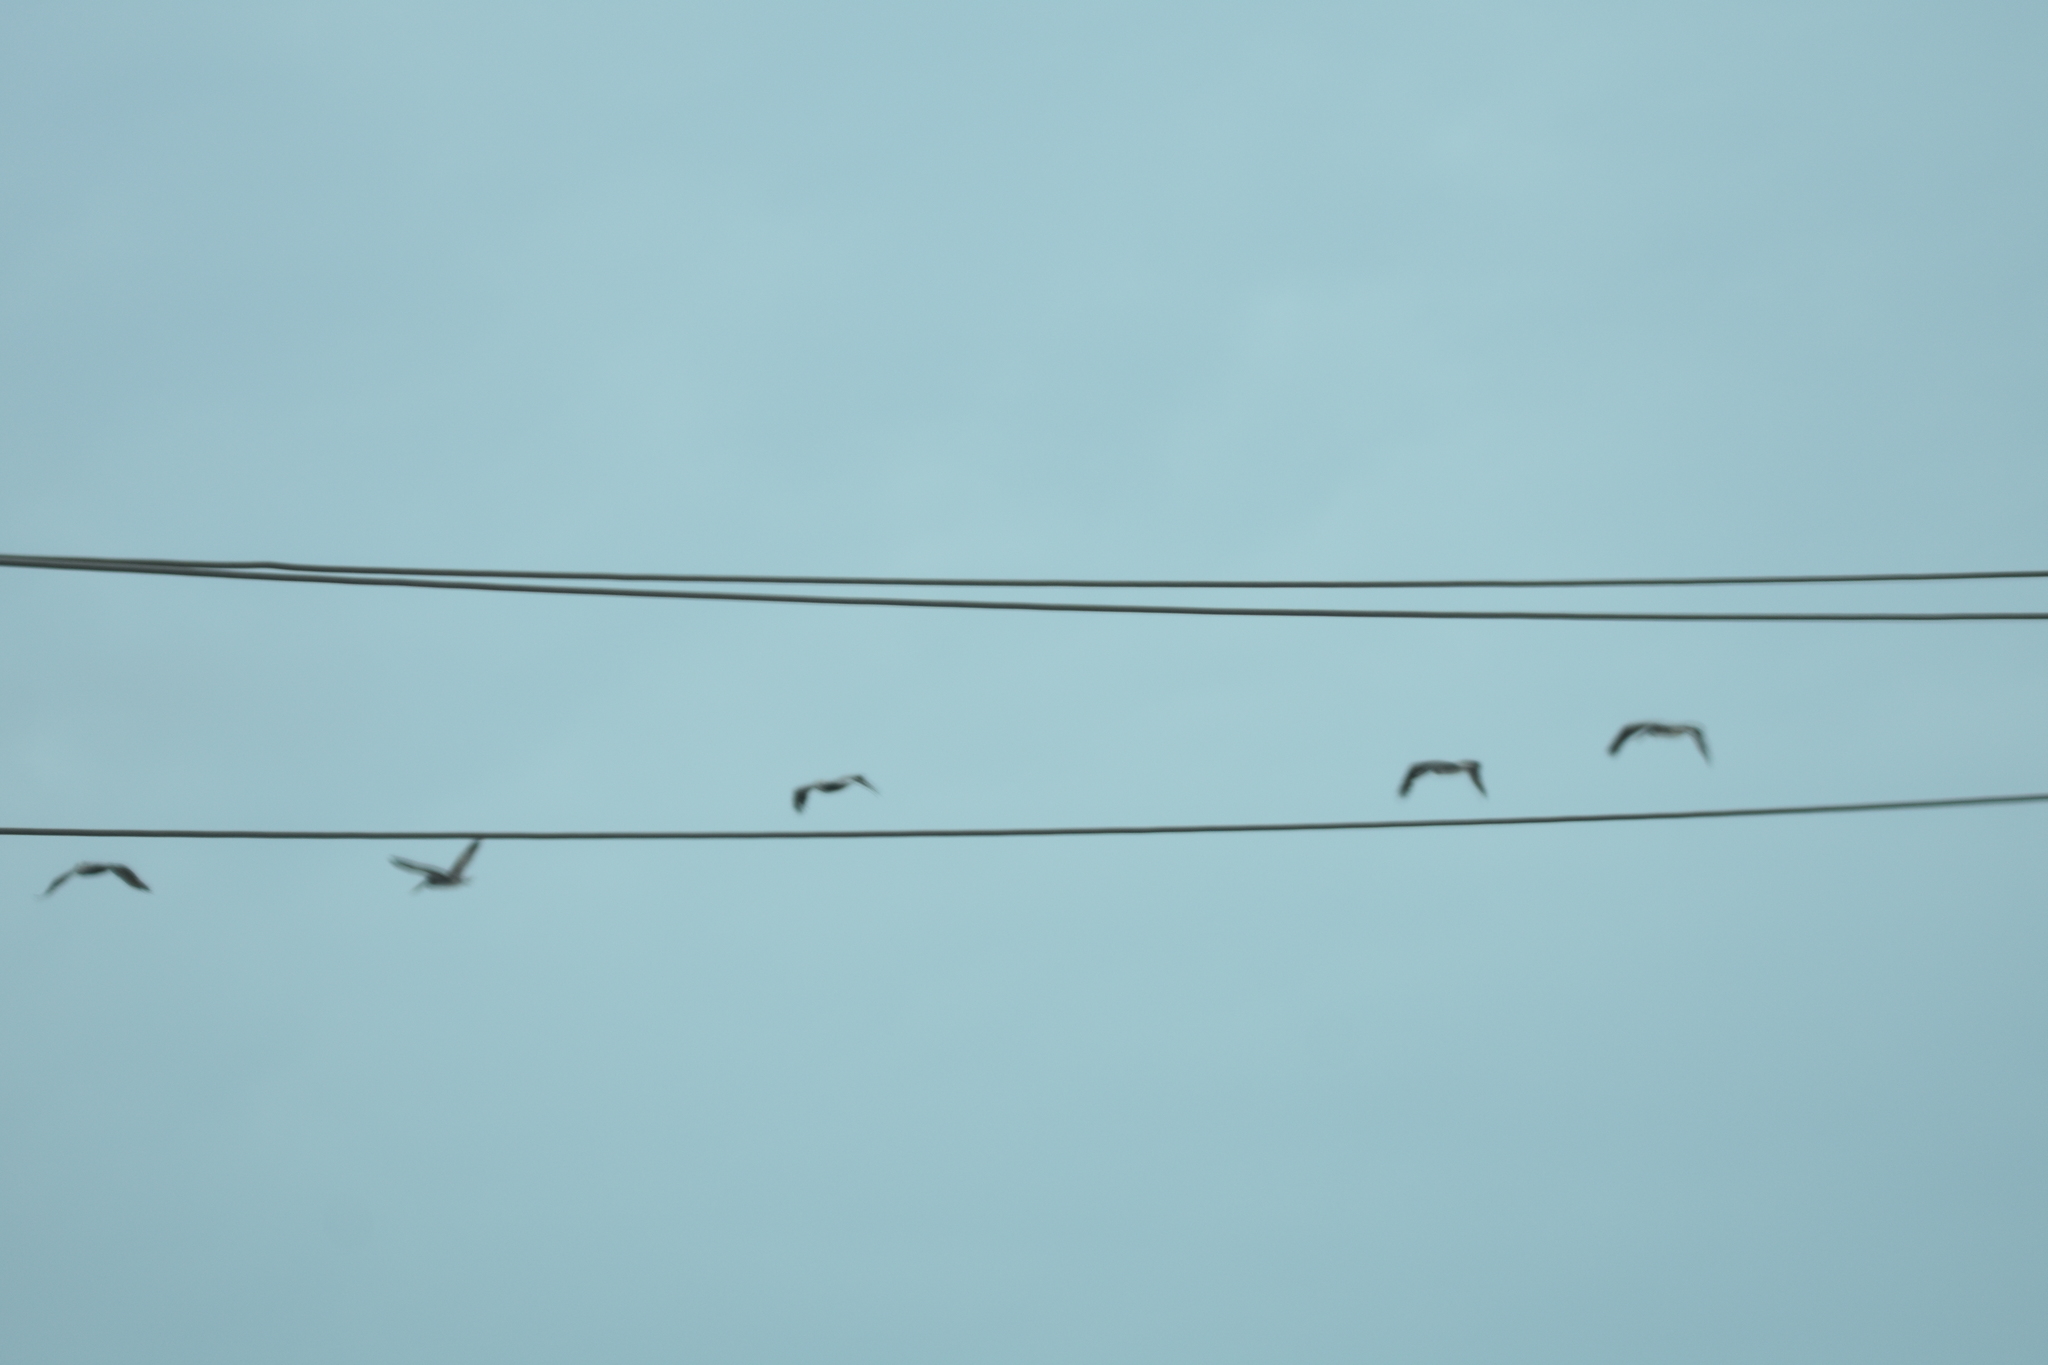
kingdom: Animalia
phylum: Chordata
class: Aves
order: Pelecaniformes
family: Pelecanidae
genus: Pelecanus
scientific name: Pelecanus occidentalis
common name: Brown pelican
